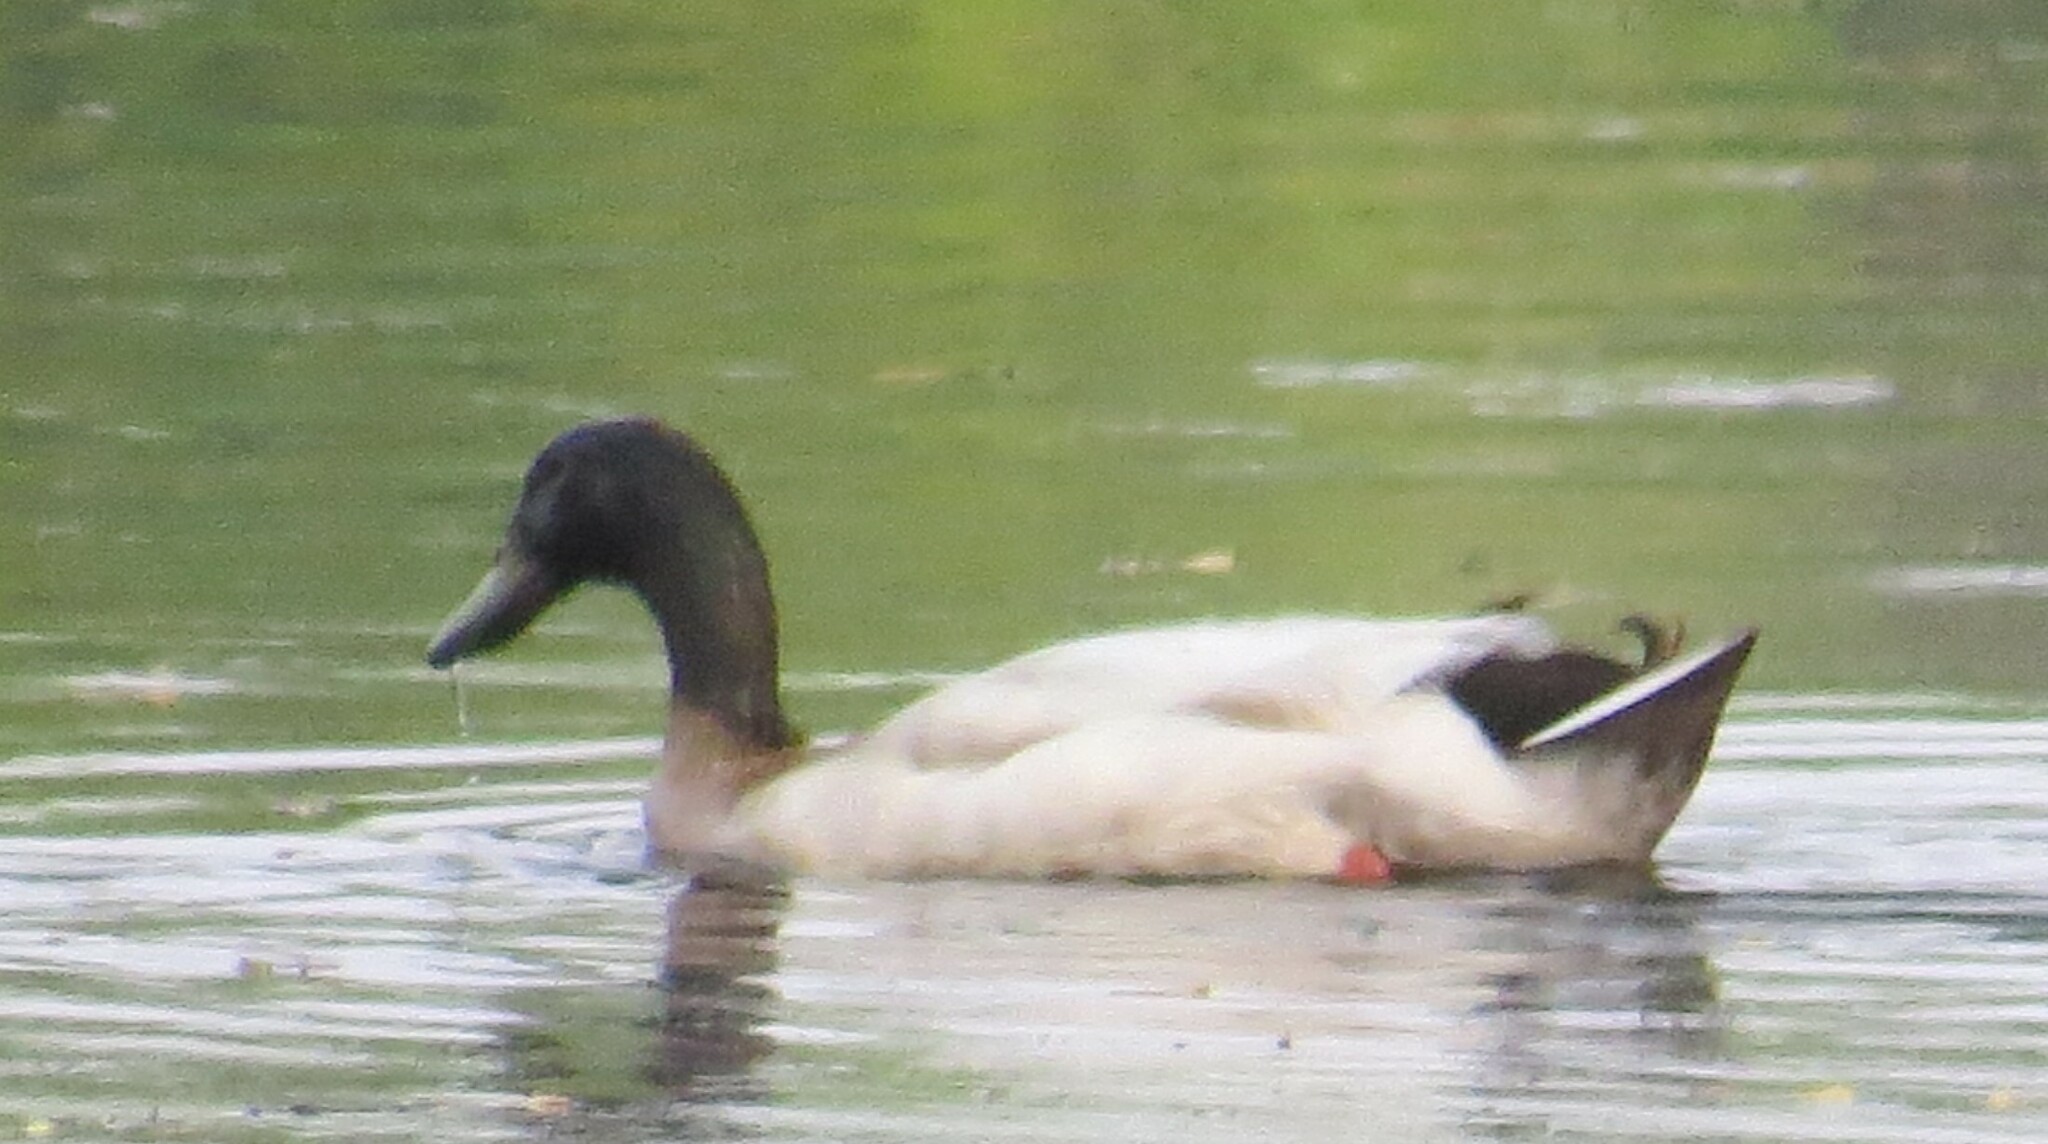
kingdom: Animalia
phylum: Chordata
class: Aves
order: Anseriformes
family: Anatidae
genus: Anas
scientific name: Anas platyrhynchos
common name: Mallard
